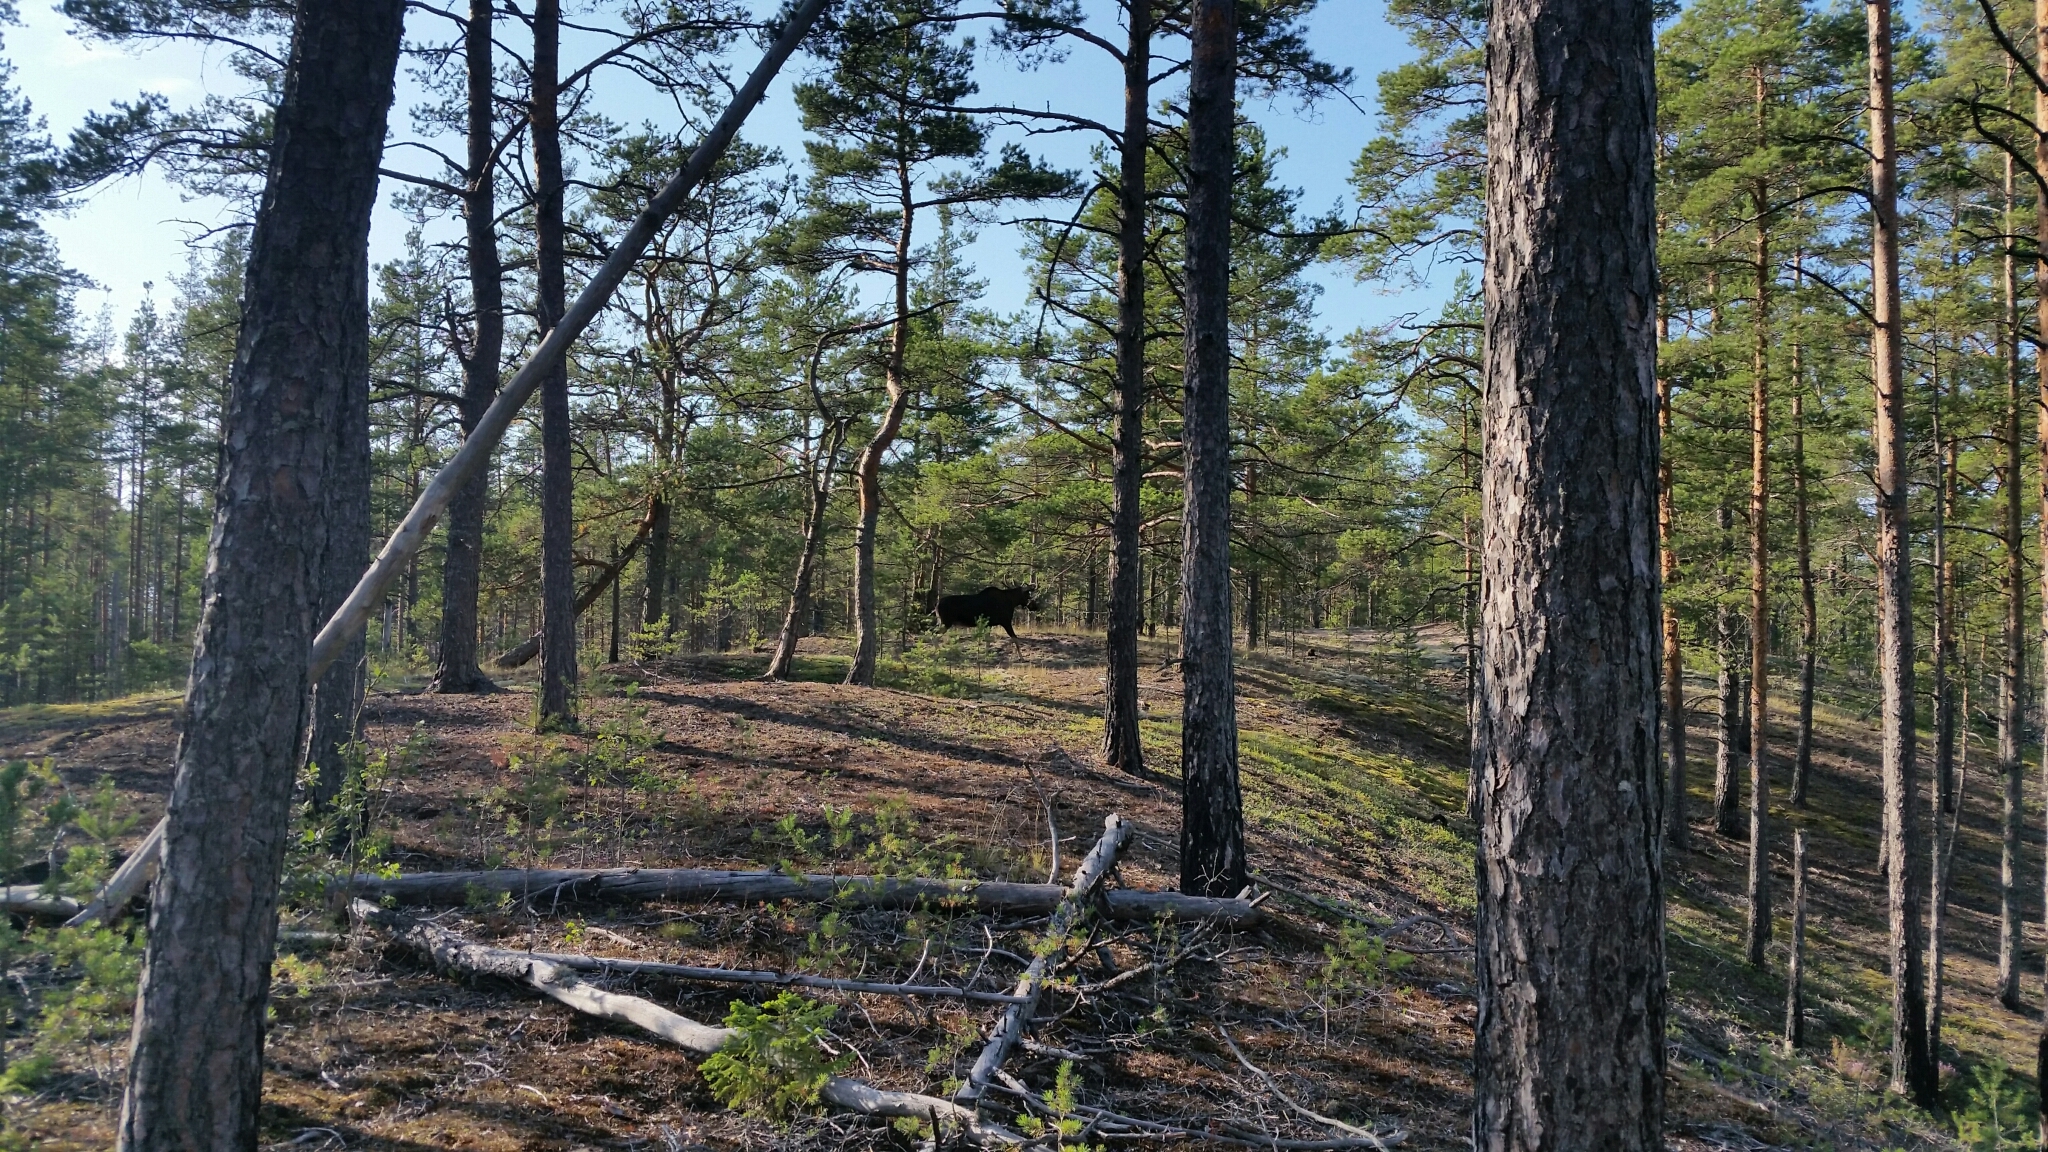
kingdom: Animalia
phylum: Chordata
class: Mammalia
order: Artiodactyla
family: Cervidae
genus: Alces
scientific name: Alces alces
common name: Moose
